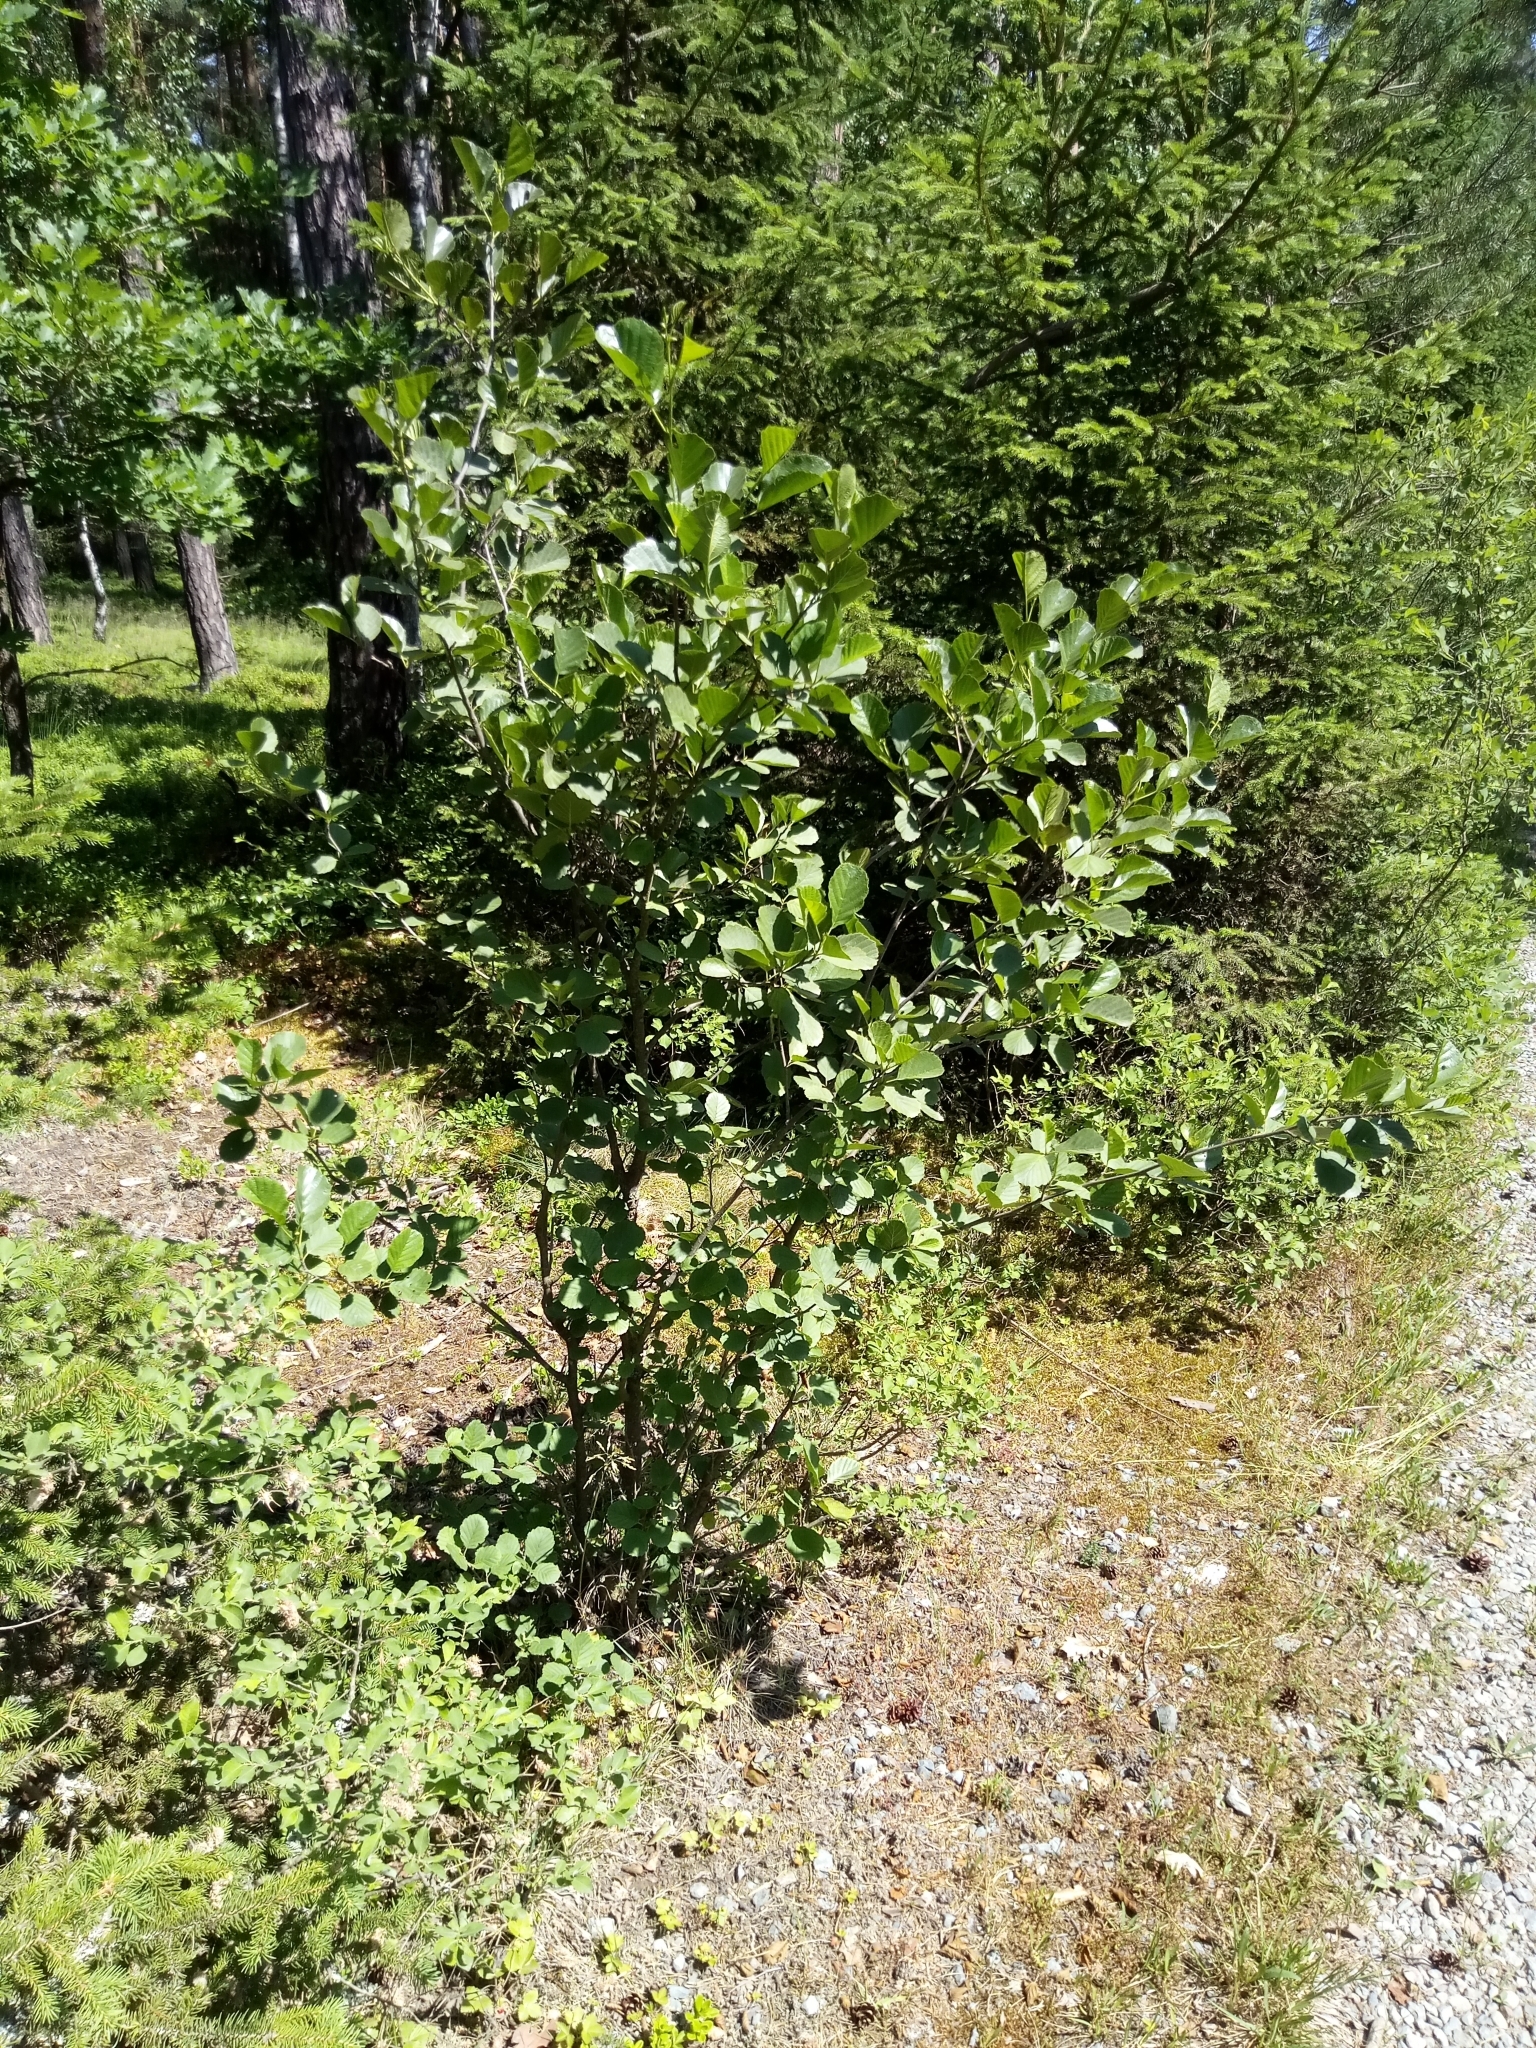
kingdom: Plantae
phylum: Tracheophyta
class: Magnoliopsida
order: Fagales
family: Betulaceae
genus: Alnus
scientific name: Alnus glutinosa
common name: Black alder
